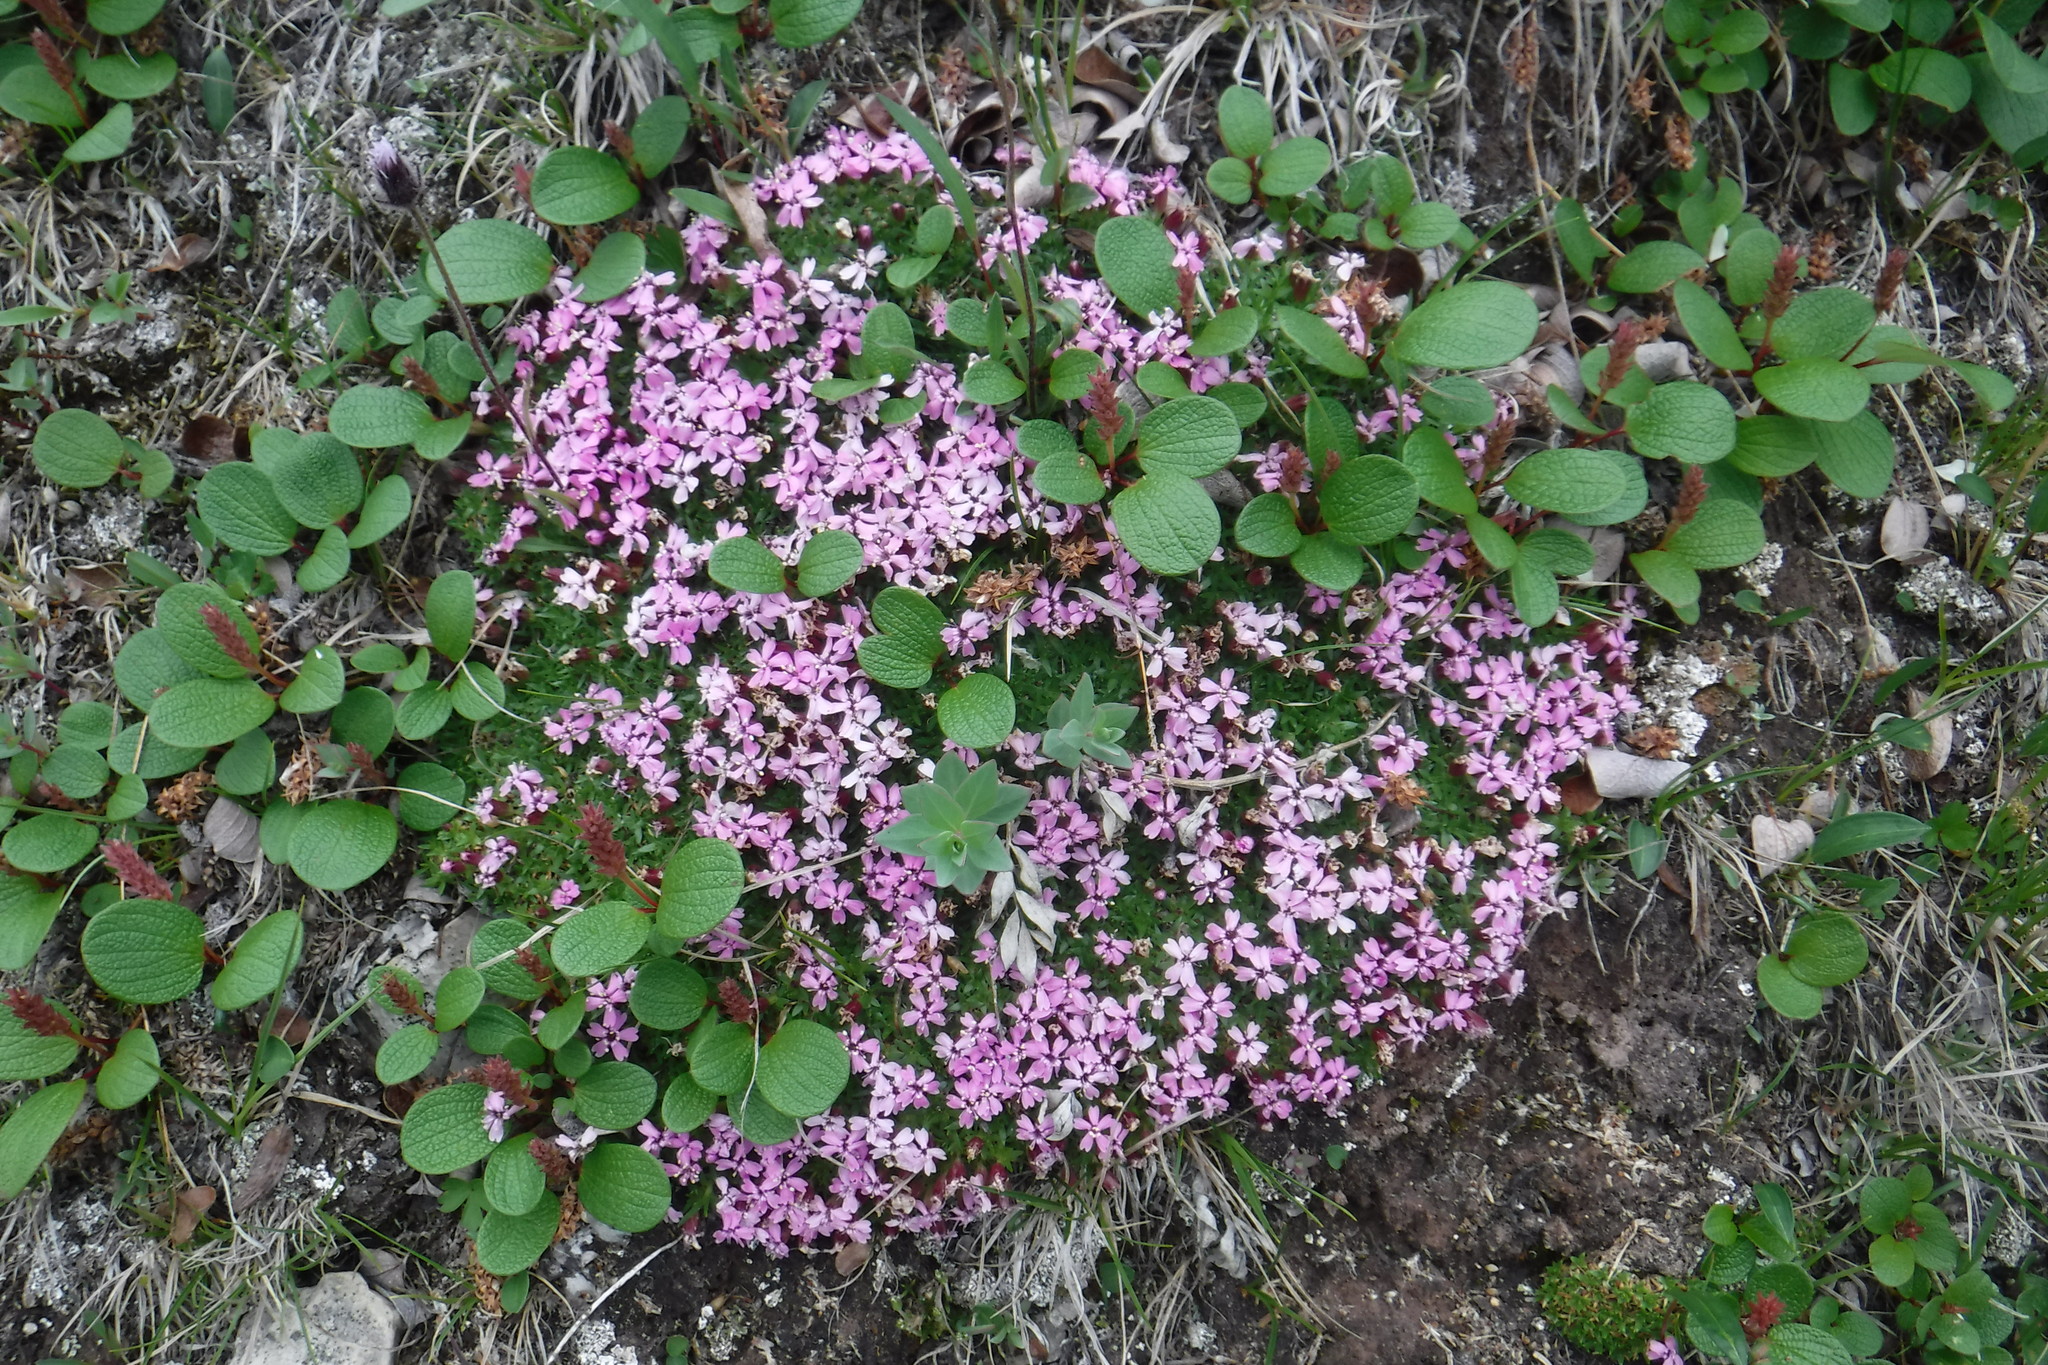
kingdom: Plantae
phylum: Tracheophyta
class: Magnoliopsida
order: Caryophyllales
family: Caryophyllaceae
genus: Silene
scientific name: Silene acaulis
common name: Moss campion
